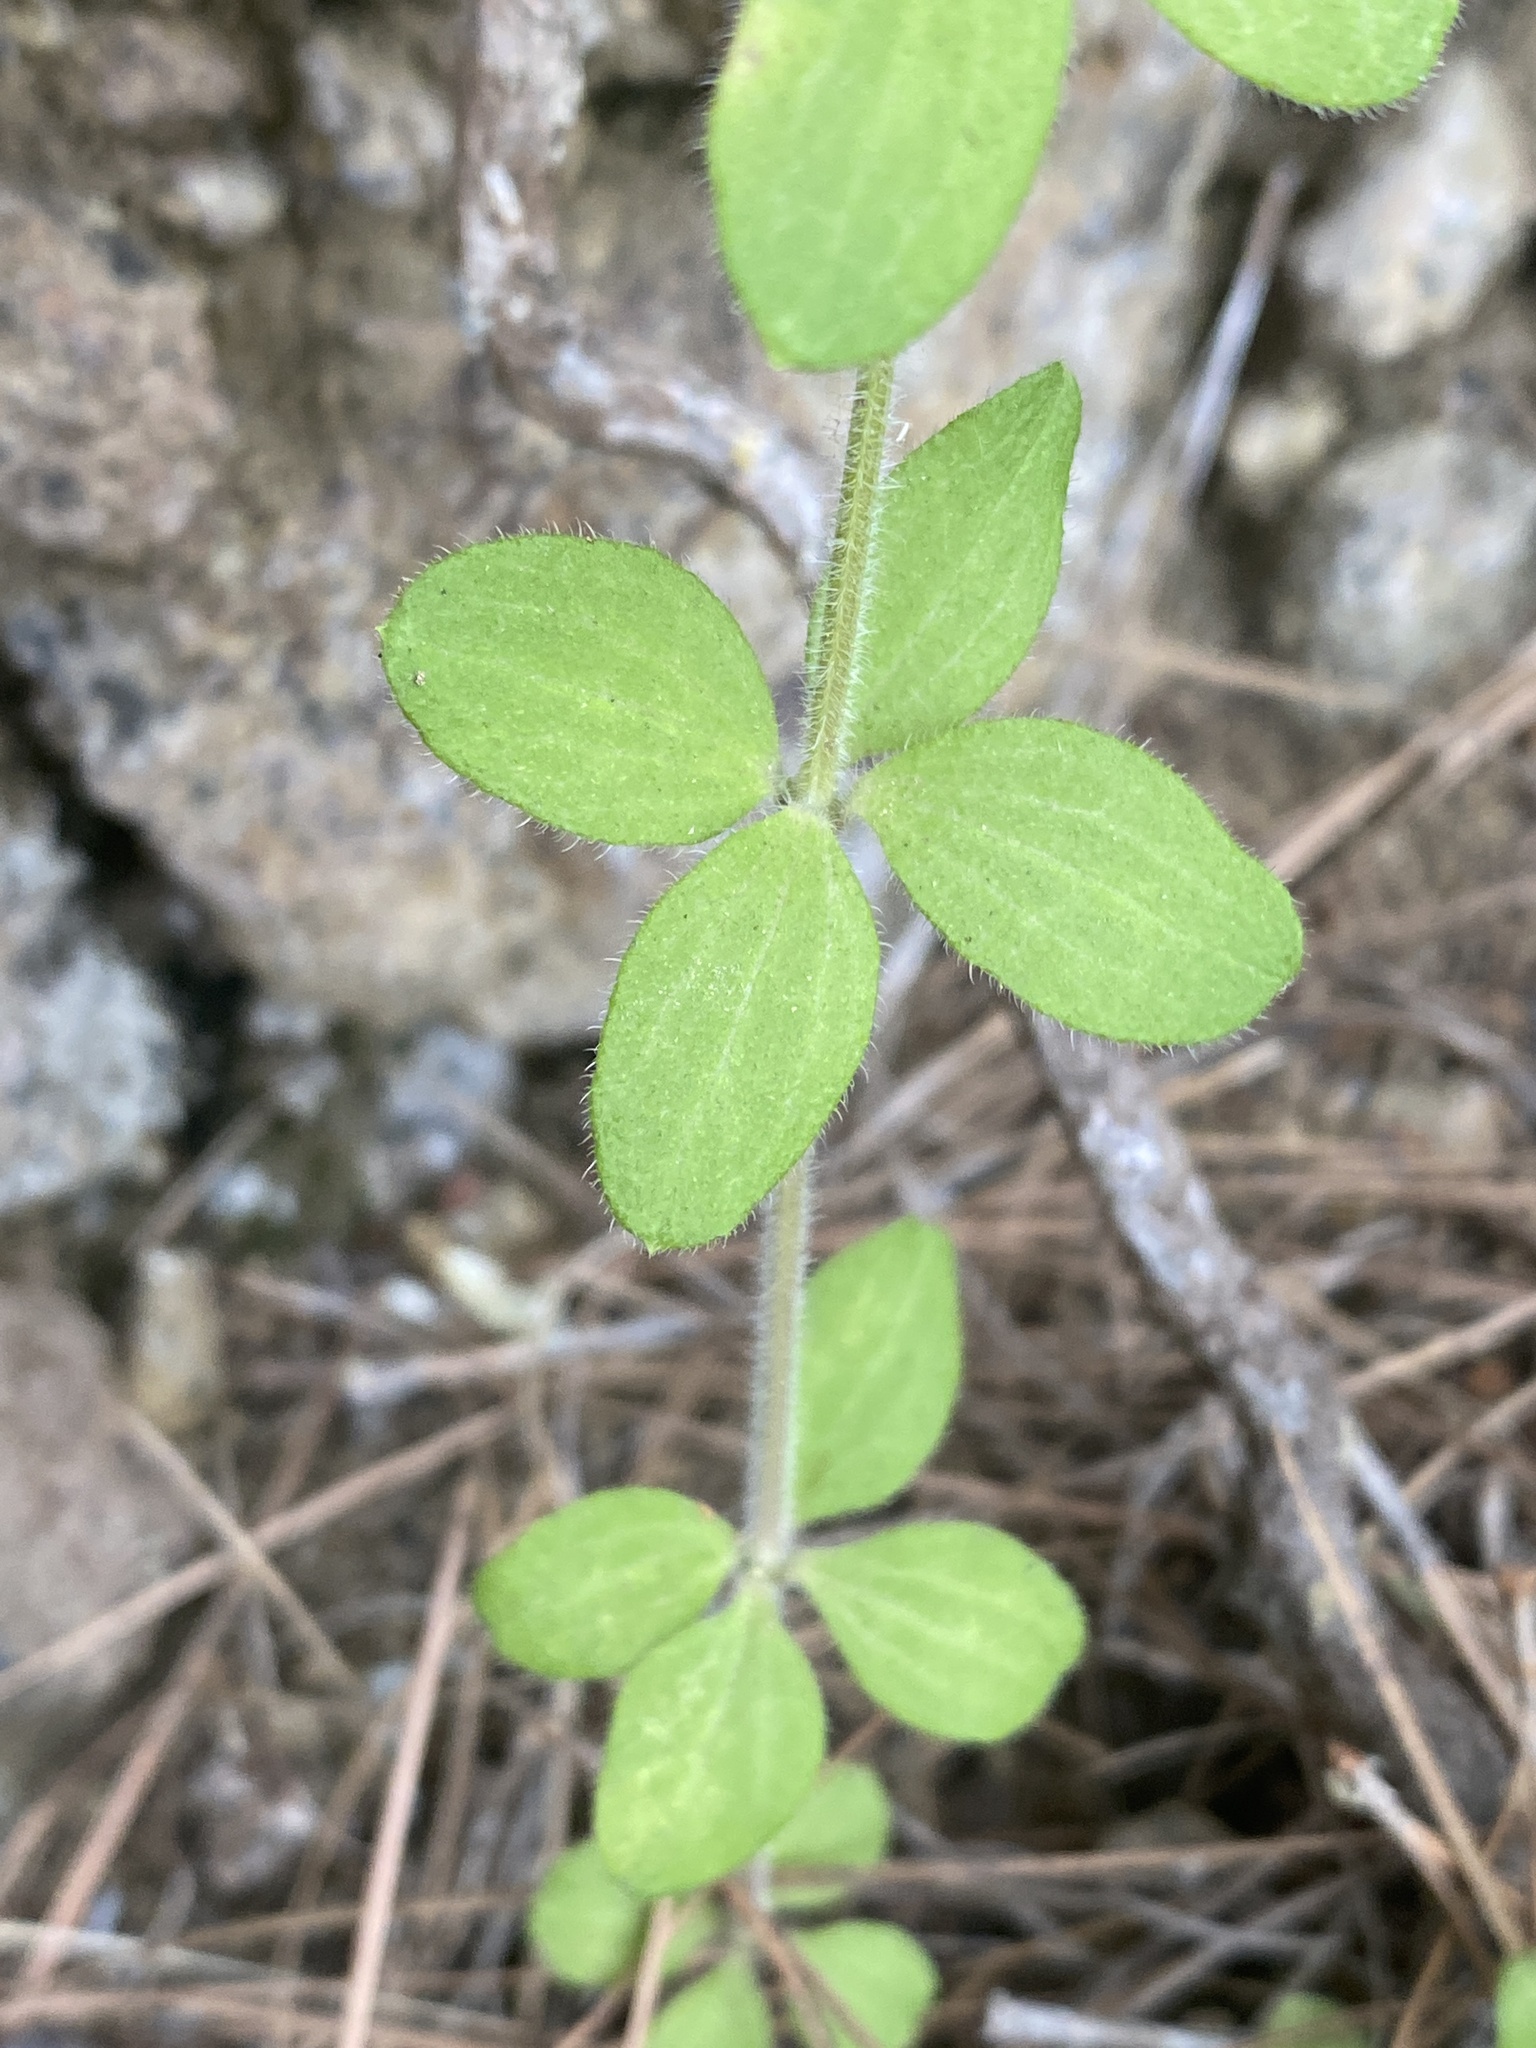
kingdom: Plantae
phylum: Tracheophyta
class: Magnoliopsida
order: Gentianales
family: Rubiaceae
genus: Galium
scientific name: Galium scabrum
